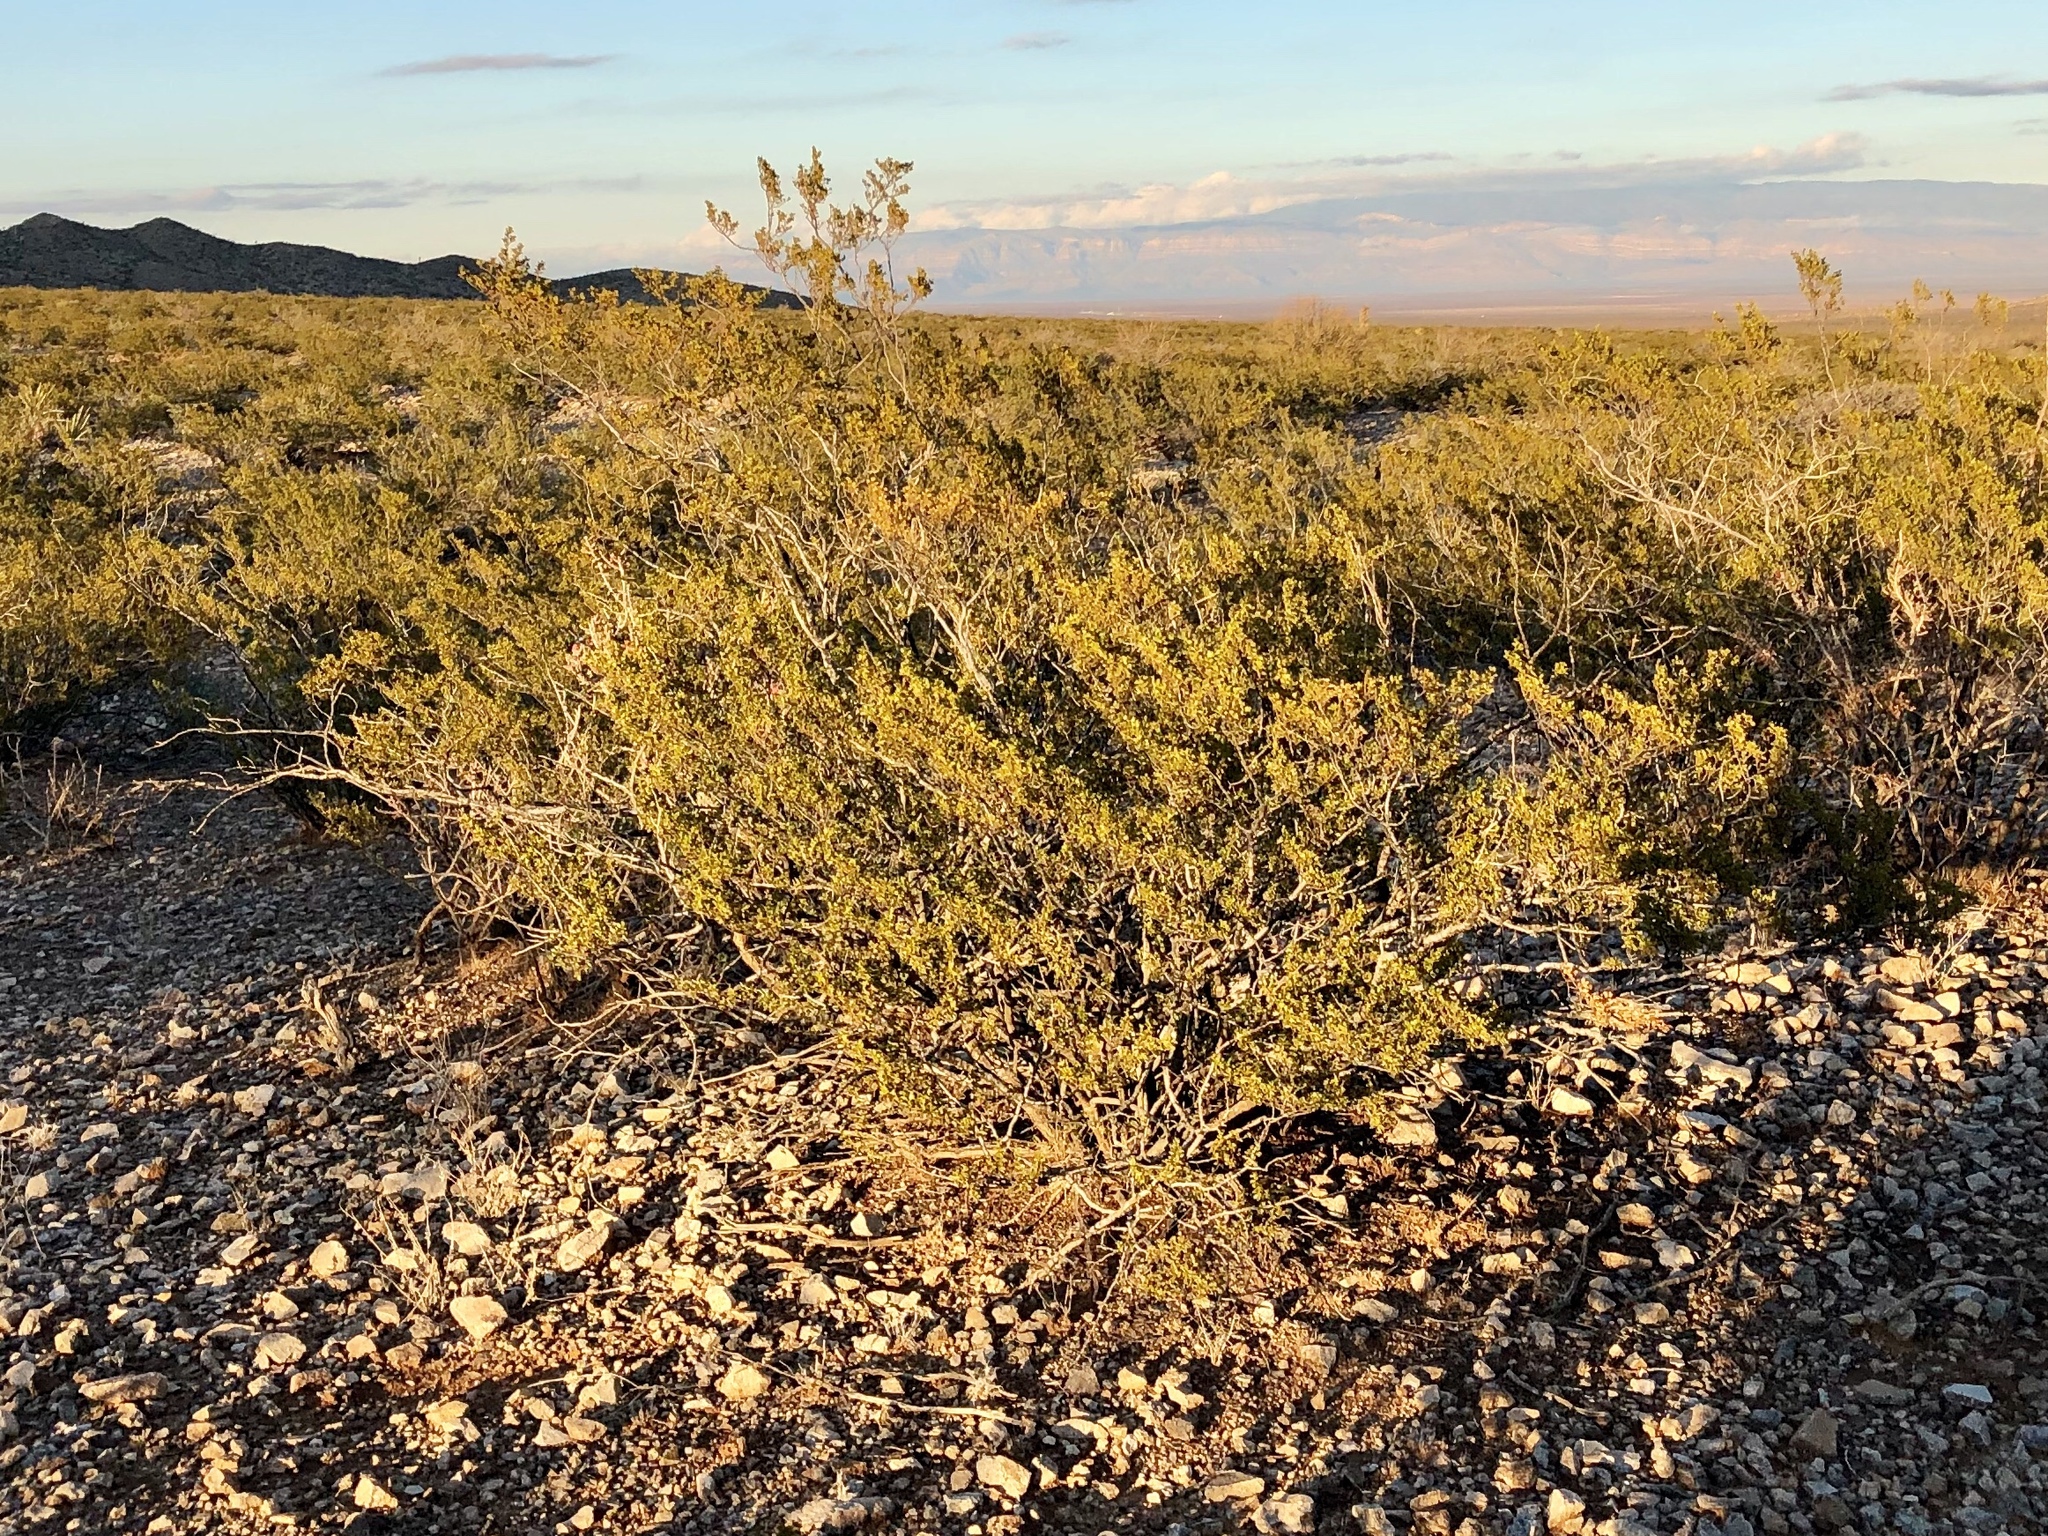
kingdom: Plantae
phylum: Tracheophyta
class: Magnoliopsida
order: Zygophyllales
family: Zygophyllaceae
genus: Larrea
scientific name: Larrea tridentata
